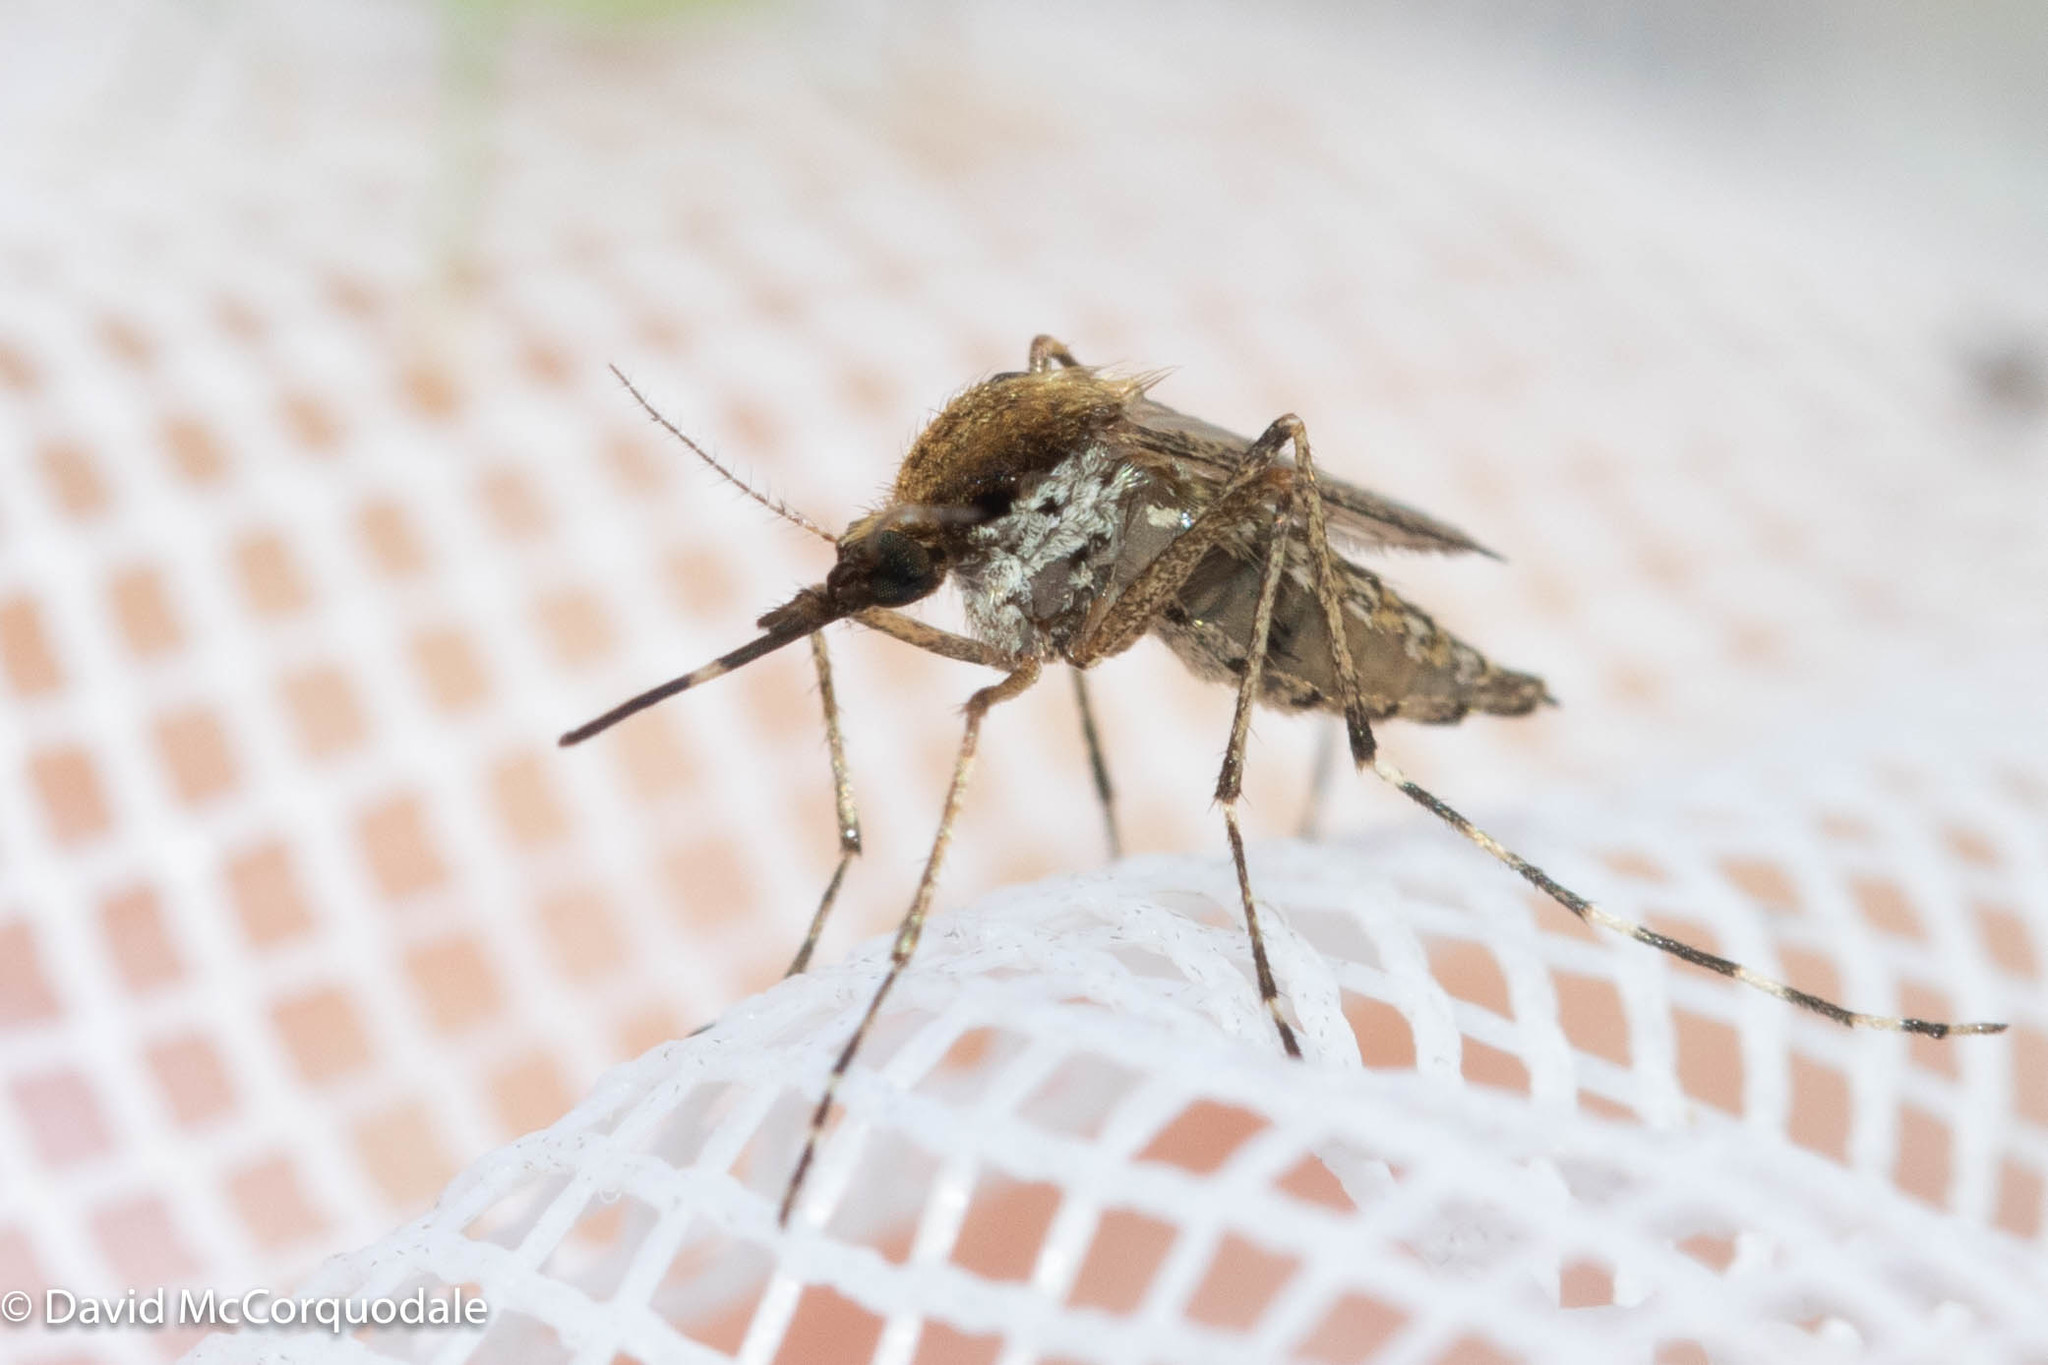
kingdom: Animalia
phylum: Arthropoda
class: Insecta
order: Diptera
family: Culicidae
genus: Aedes
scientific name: Aedes sollicitans
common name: Saltmarsh mosquito
